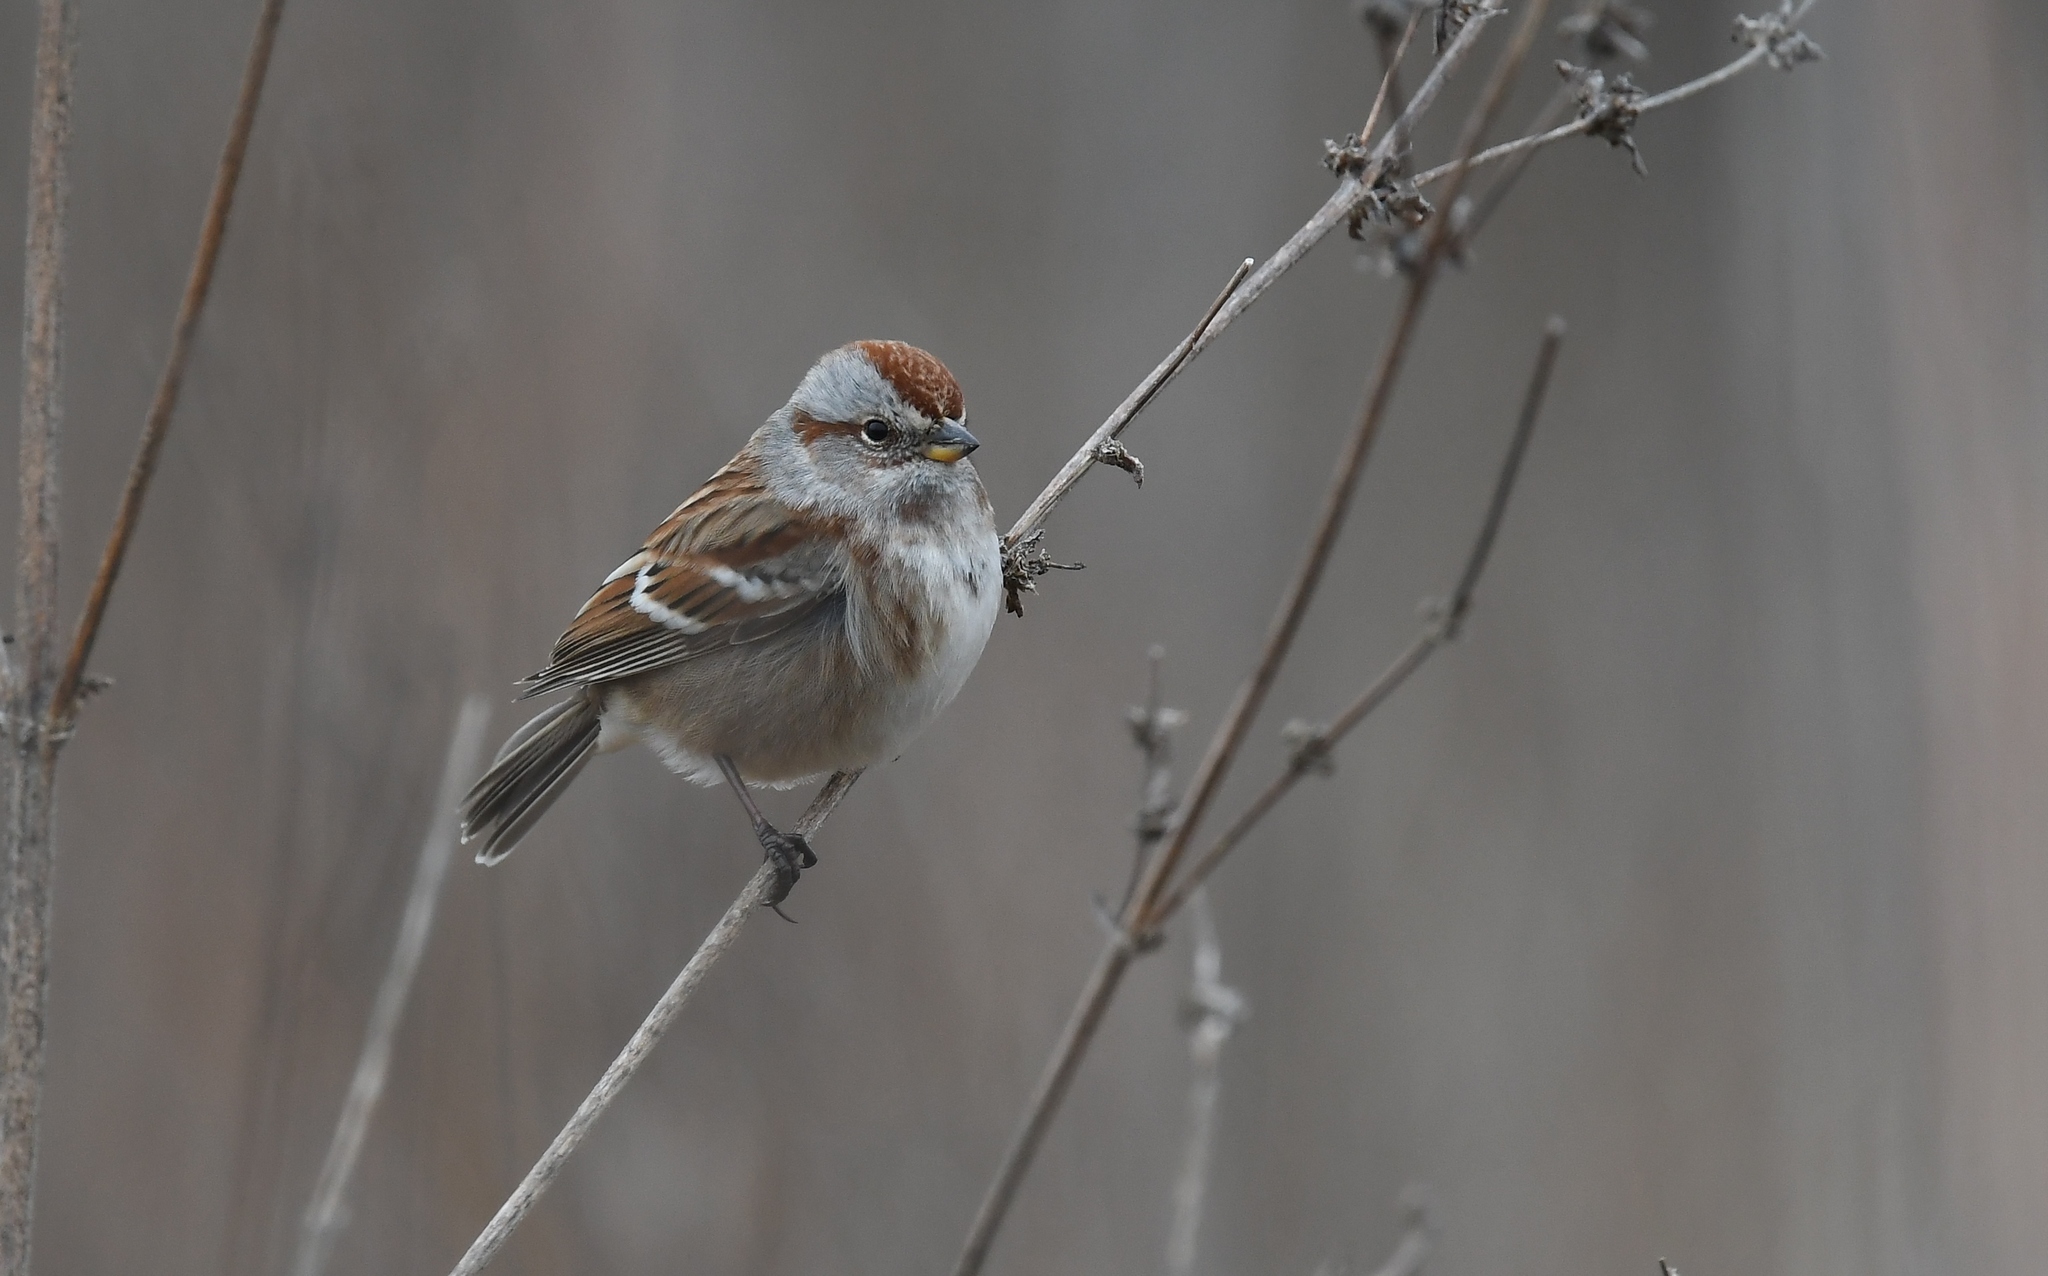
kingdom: Animalia
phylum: Chordata
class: Aves
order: Passeriformes
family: Passerellidae
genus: Spizelloides
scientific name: Spizelloides arborea
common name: American tree sparrow
